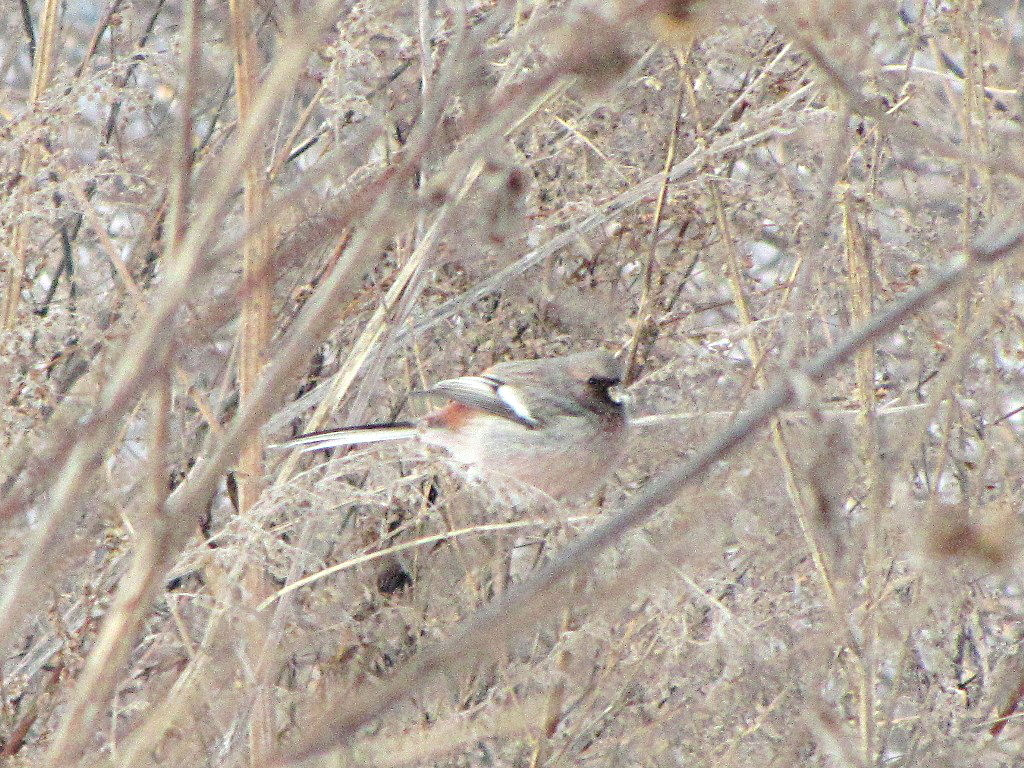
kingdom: Animalia
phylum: Chordata
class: Aves
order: Passeriformes
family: Fringillidae
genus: Carpodacus
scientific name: Carpodacus sibiricus
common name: Long-tailed rosefinch
